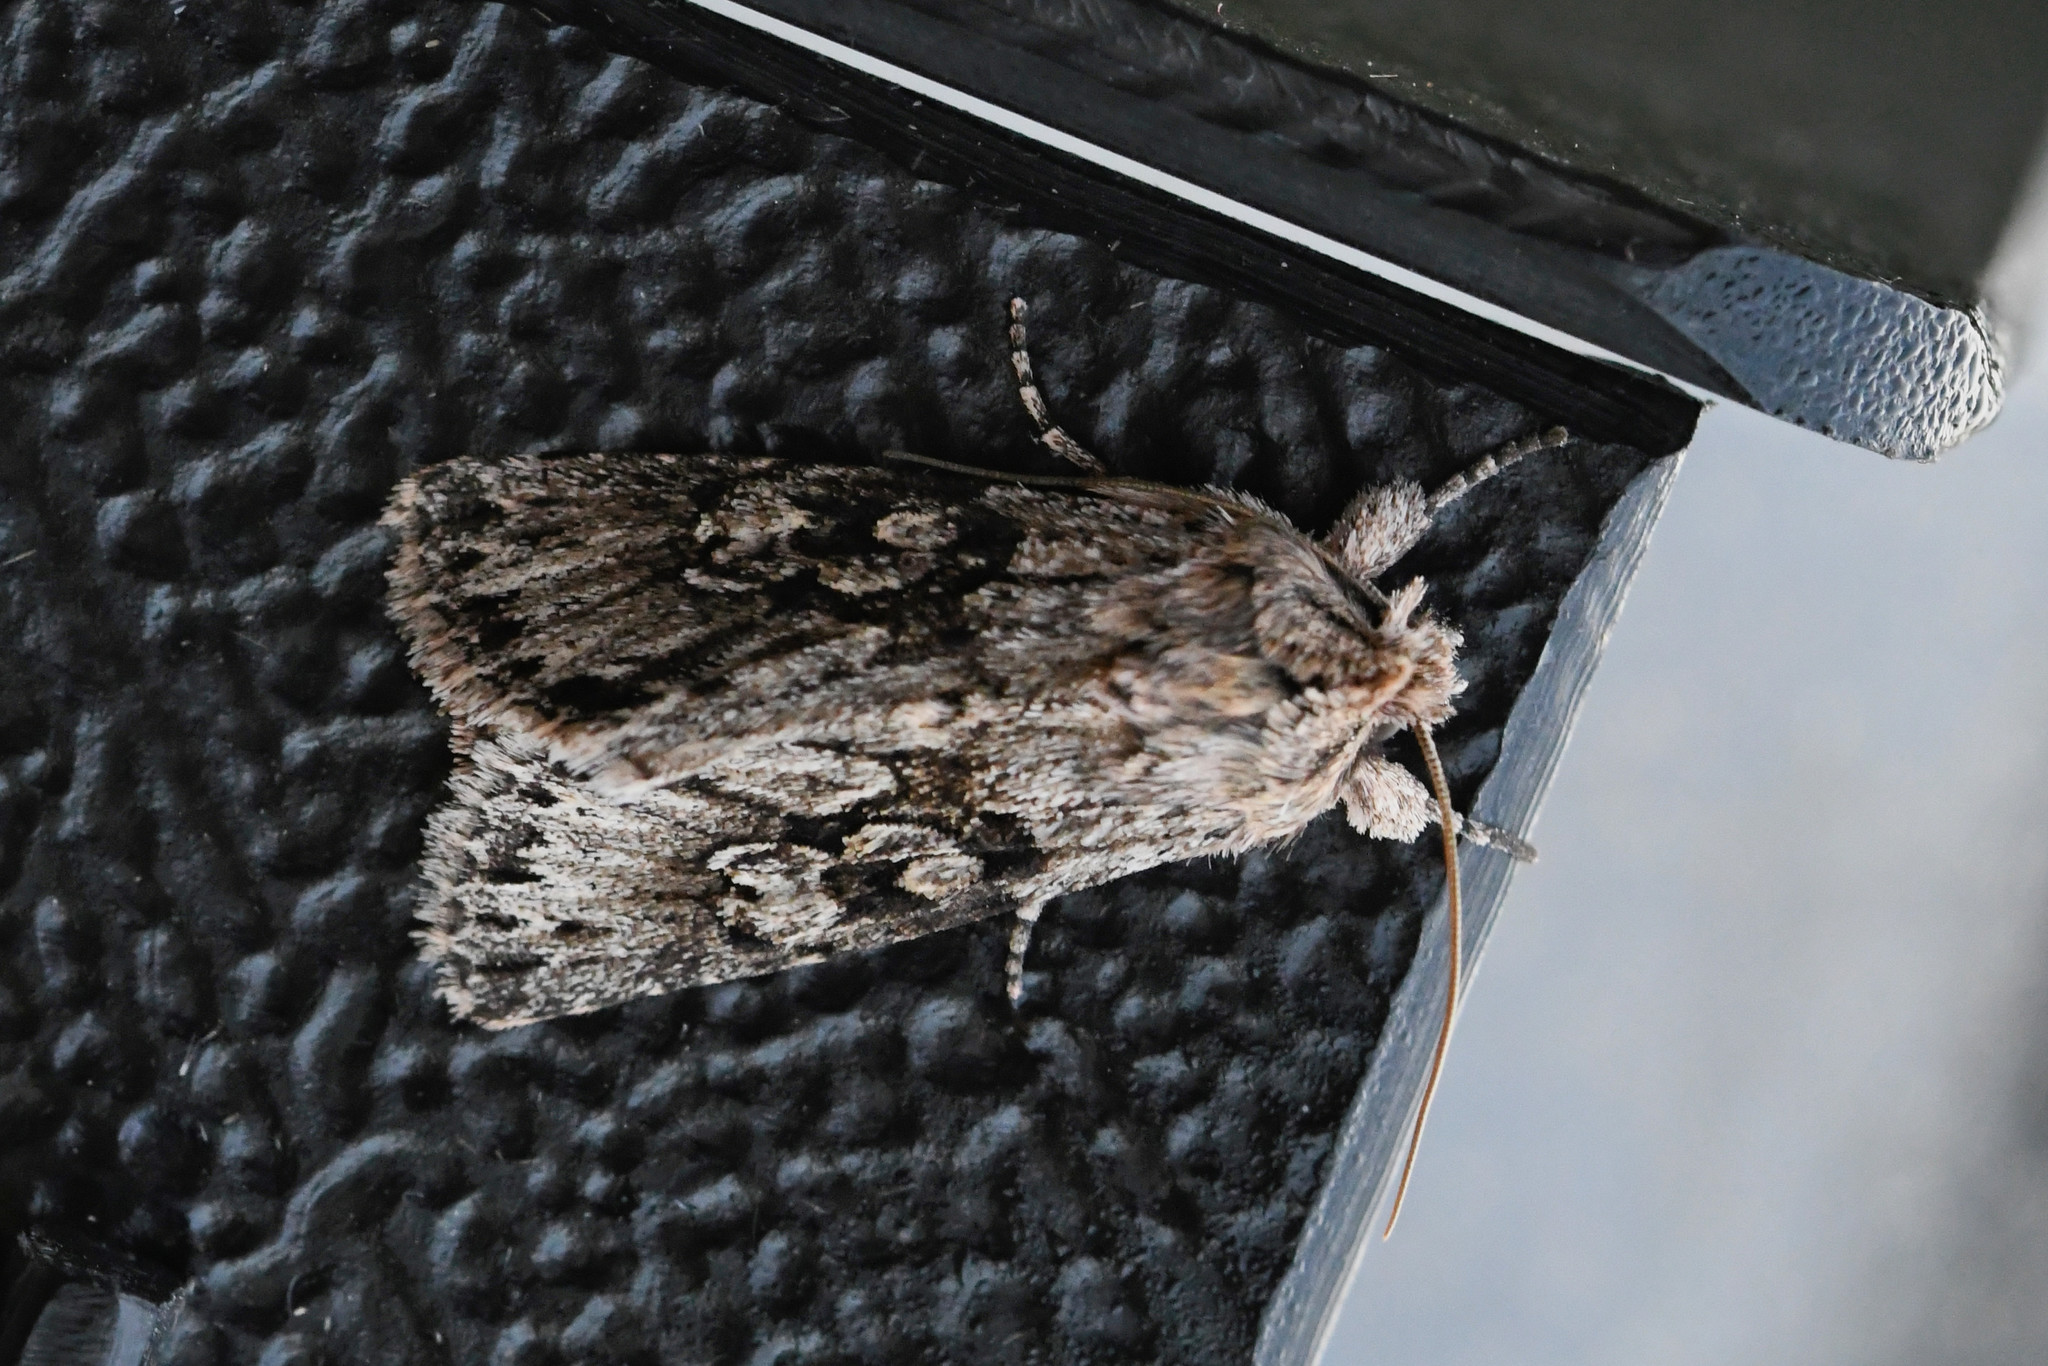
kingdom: Animalia
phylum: Arthropoda
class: Insecta
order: Lepidoptera
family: Noctuidae
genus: Xylocampa
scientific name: Xylocampa areola
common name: Early grey
